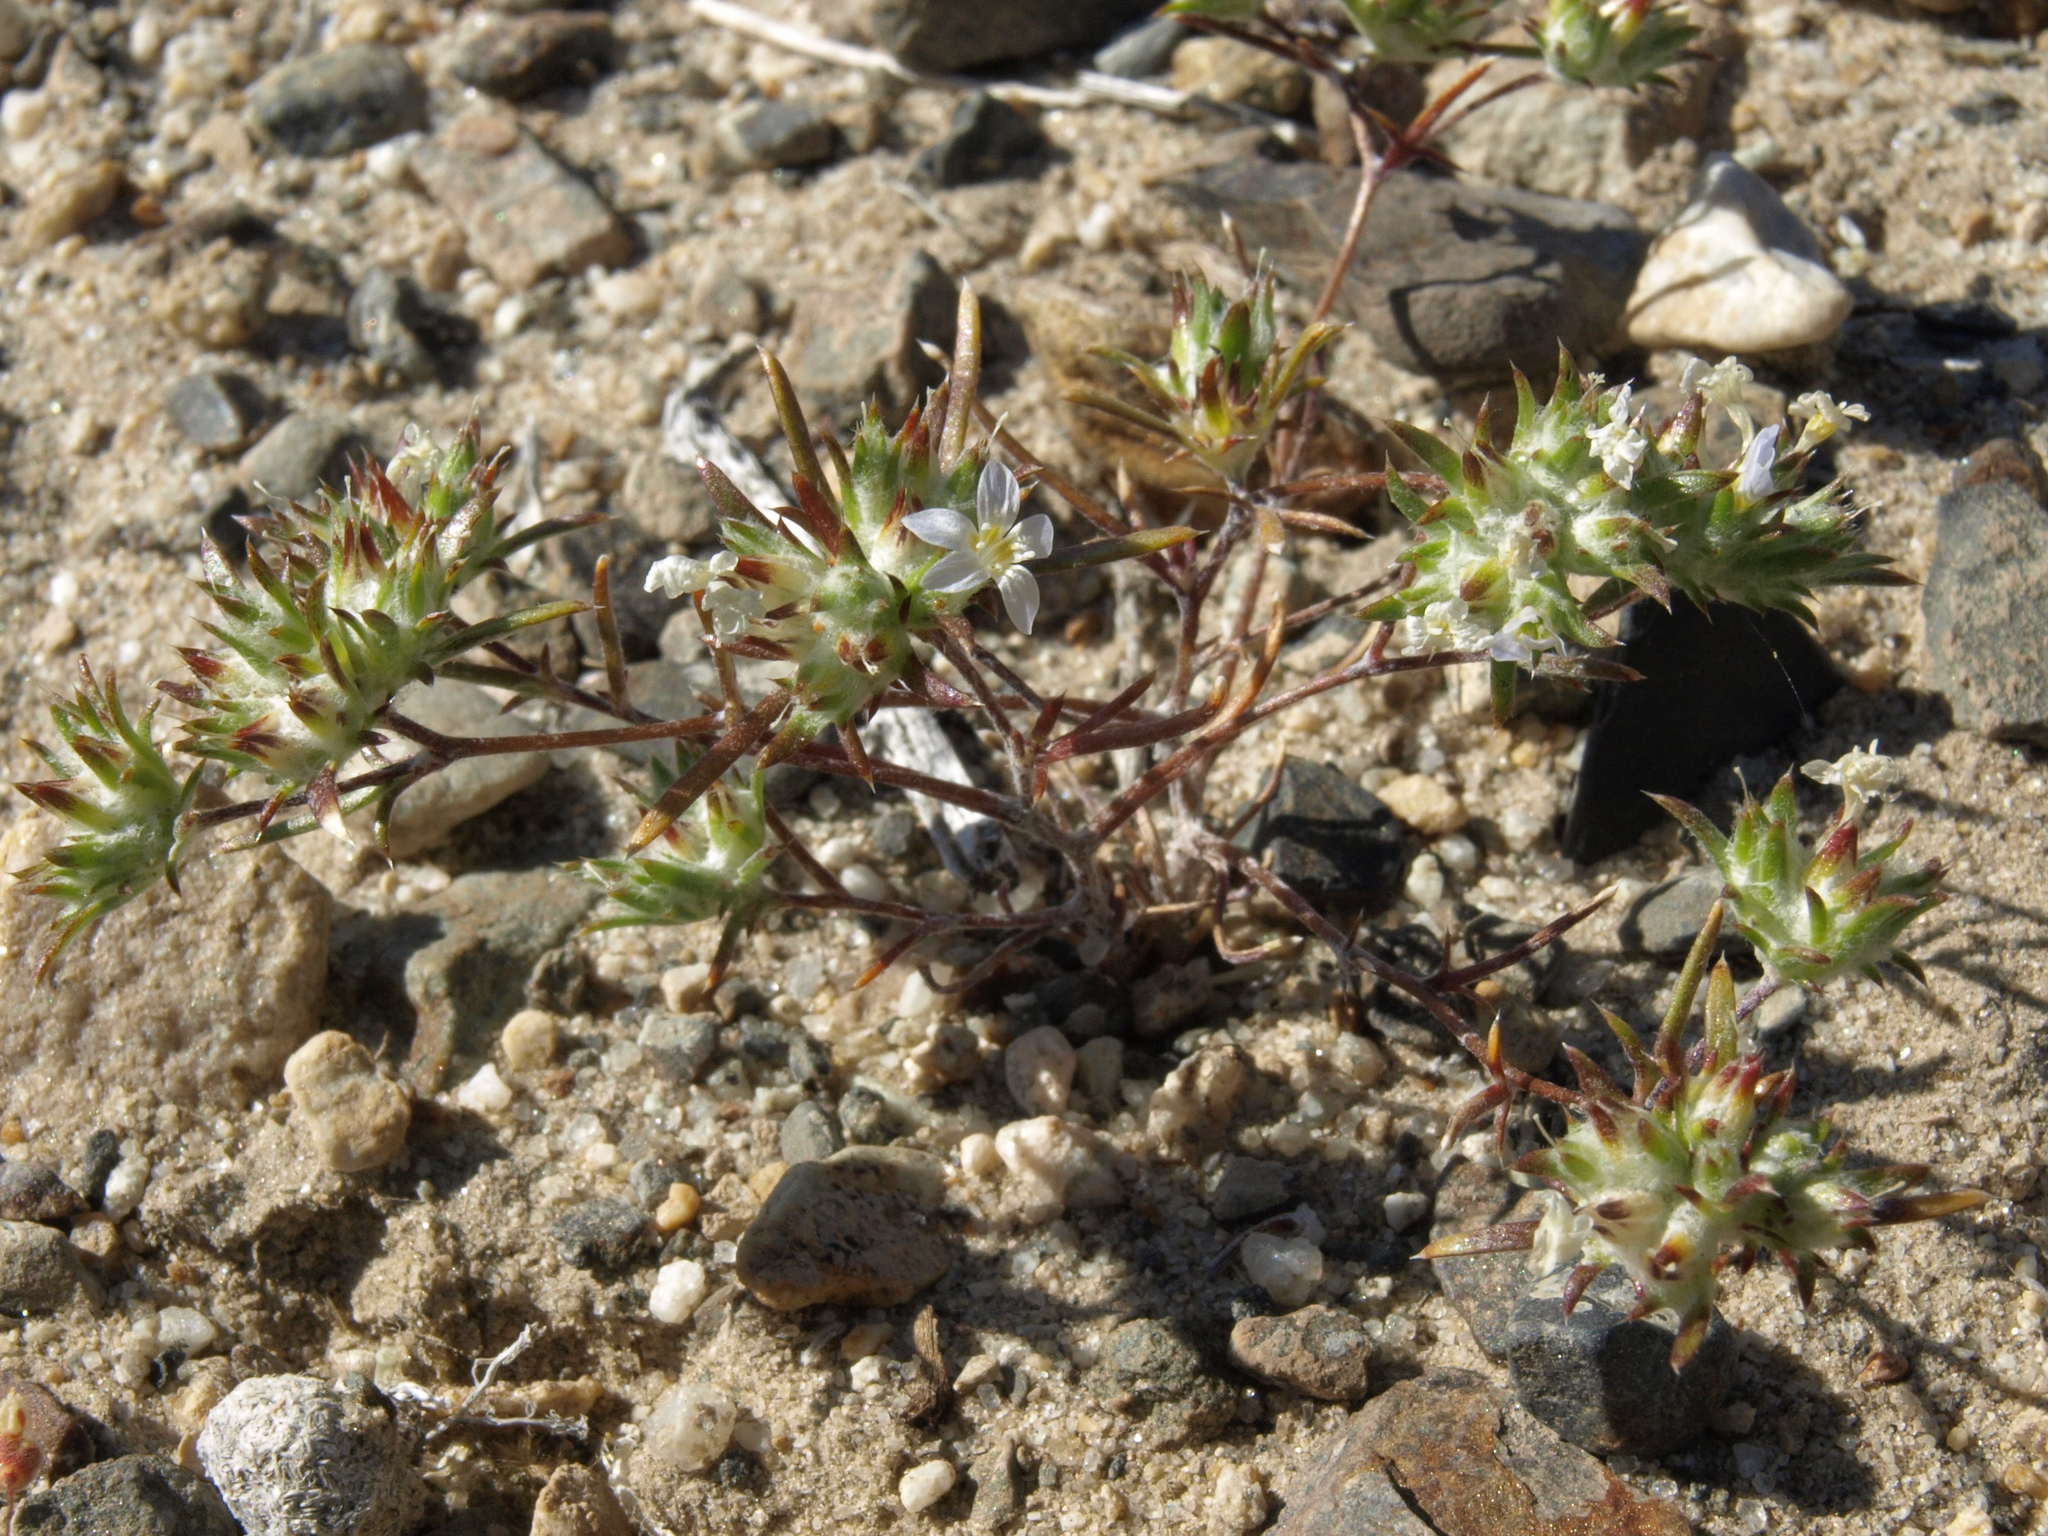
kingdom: Plantae
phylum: Tracheophyta
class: Magnoliopsida
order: Ericales
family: Polemoniaceae
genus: Eriastrum
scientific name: Eriastrum diffusum
